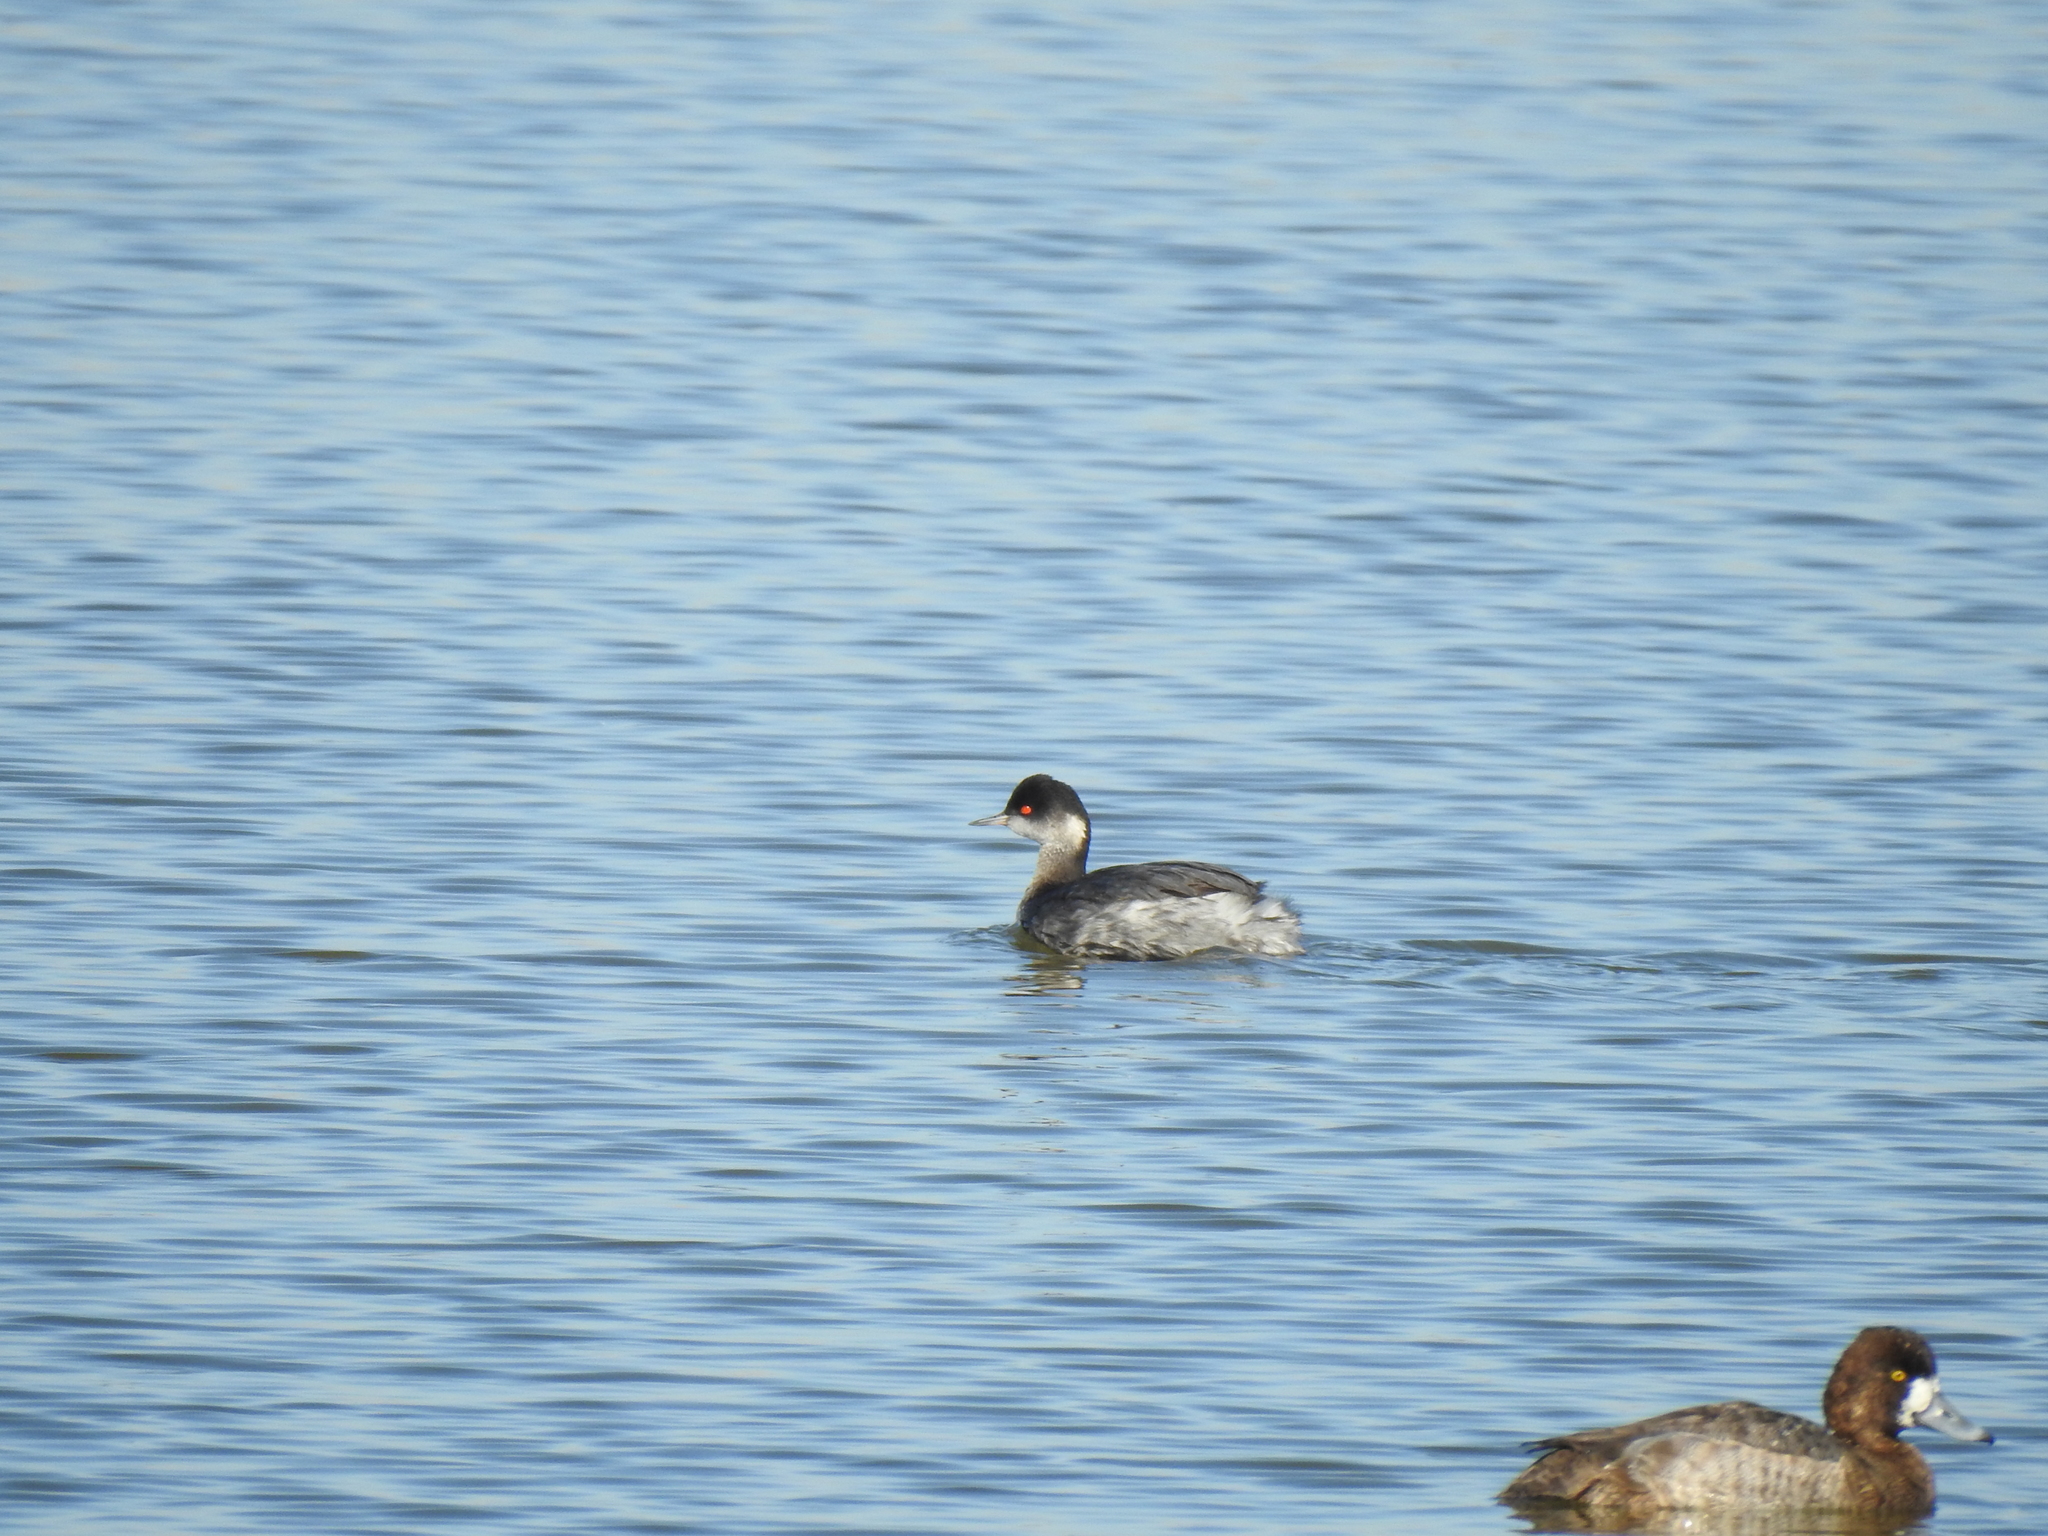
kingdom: Animalia
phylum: Chordata
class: Aves
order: Podicipediformes
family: Podicipedidae
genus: Podiceps
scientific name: Podiceps nigricollis
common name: Black-necked grebe
